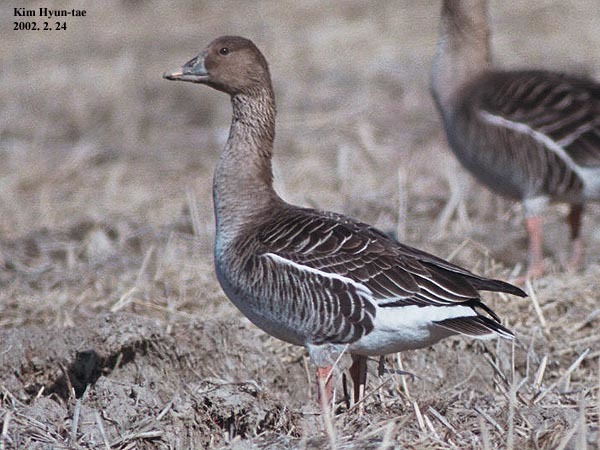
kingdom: Animalia
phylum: Chordata
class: Aves
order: Anseriformes
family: Anatidae
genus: Anser
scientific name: Anser fabalis
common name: Bean goose
